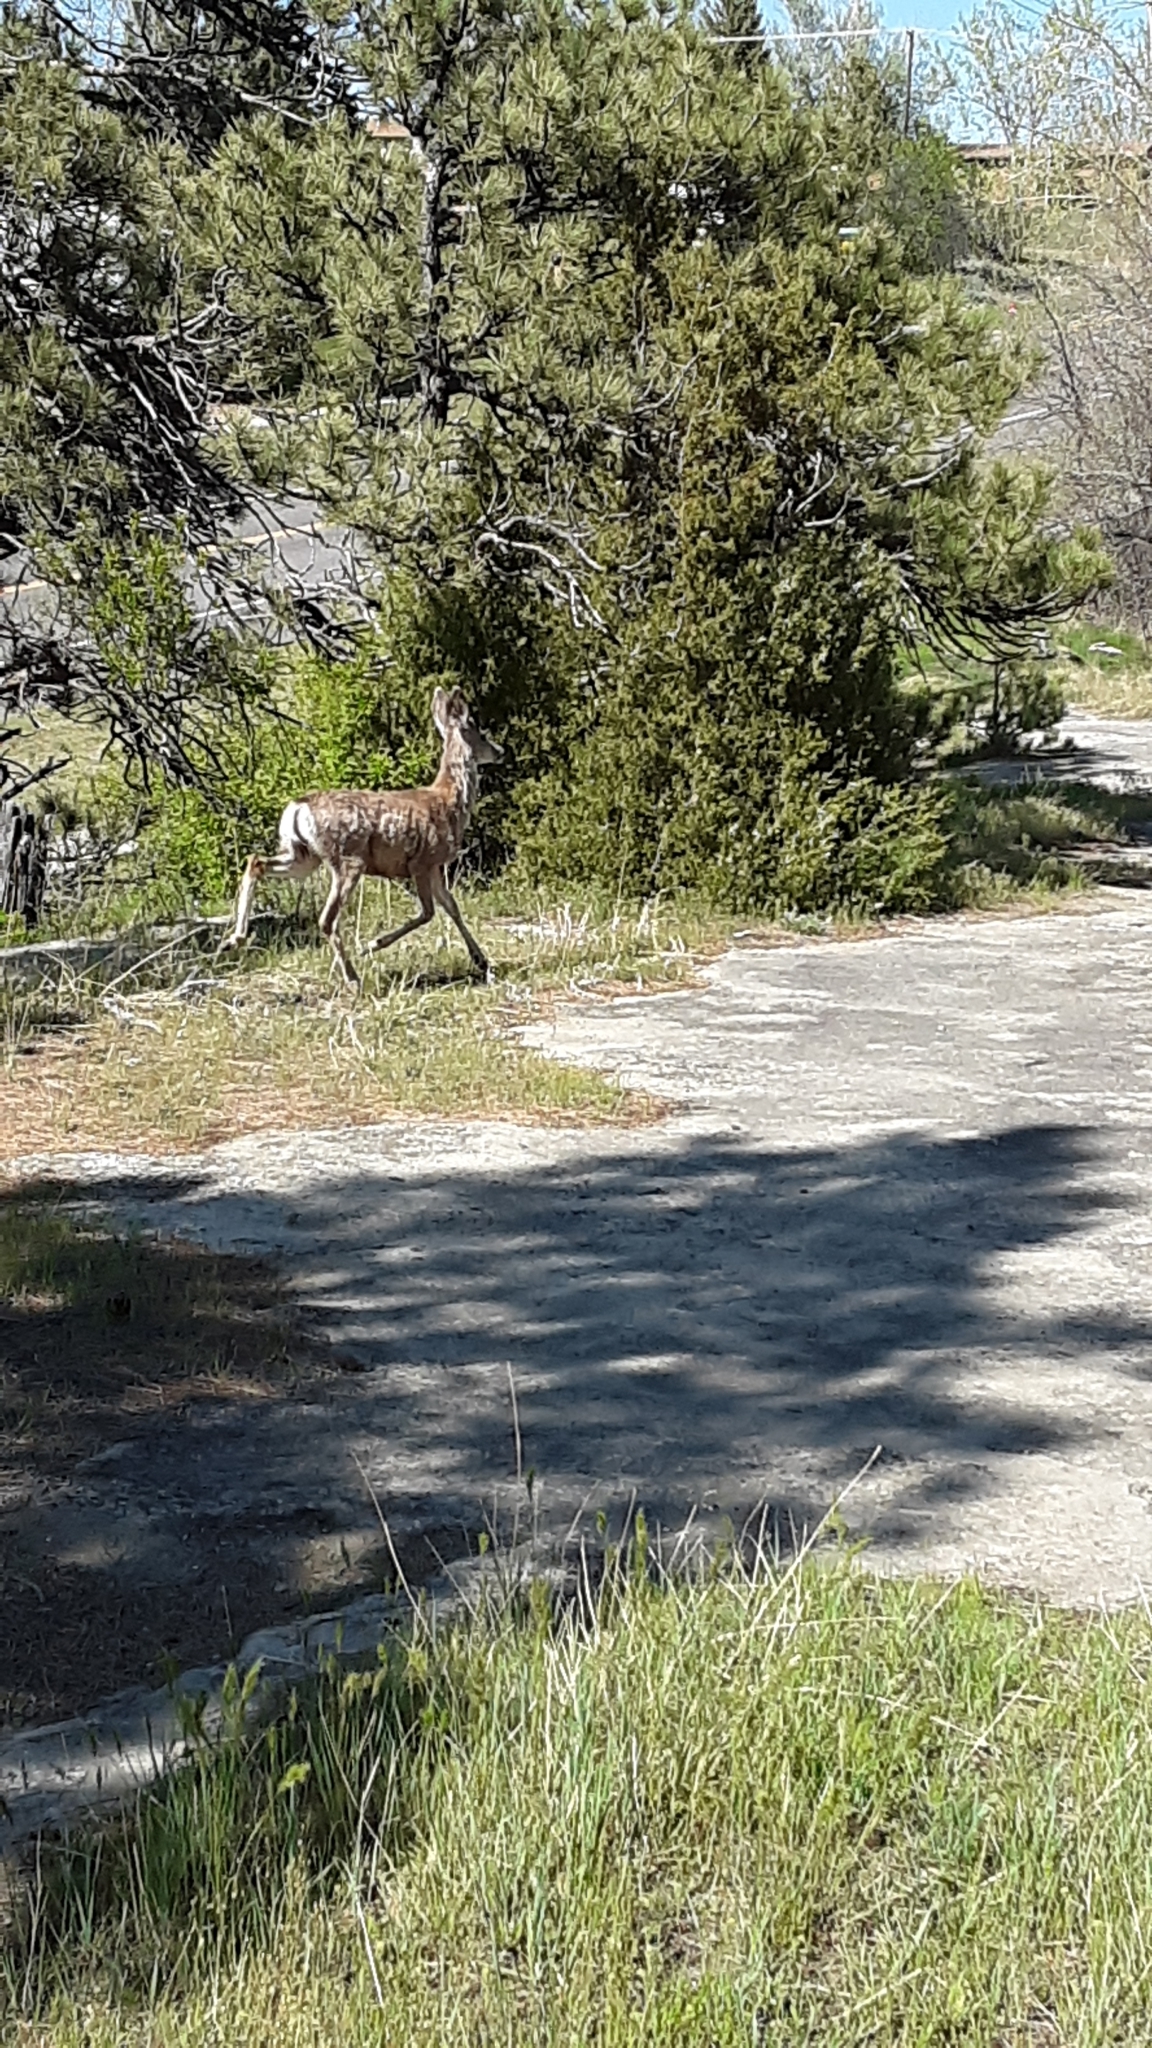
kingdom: Animalia
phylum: Chordata
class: Mammalia
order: Artiodactyla
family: Cervidae
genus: Odocoileus
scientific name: Odocoileus hemionus
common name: Mule deer
